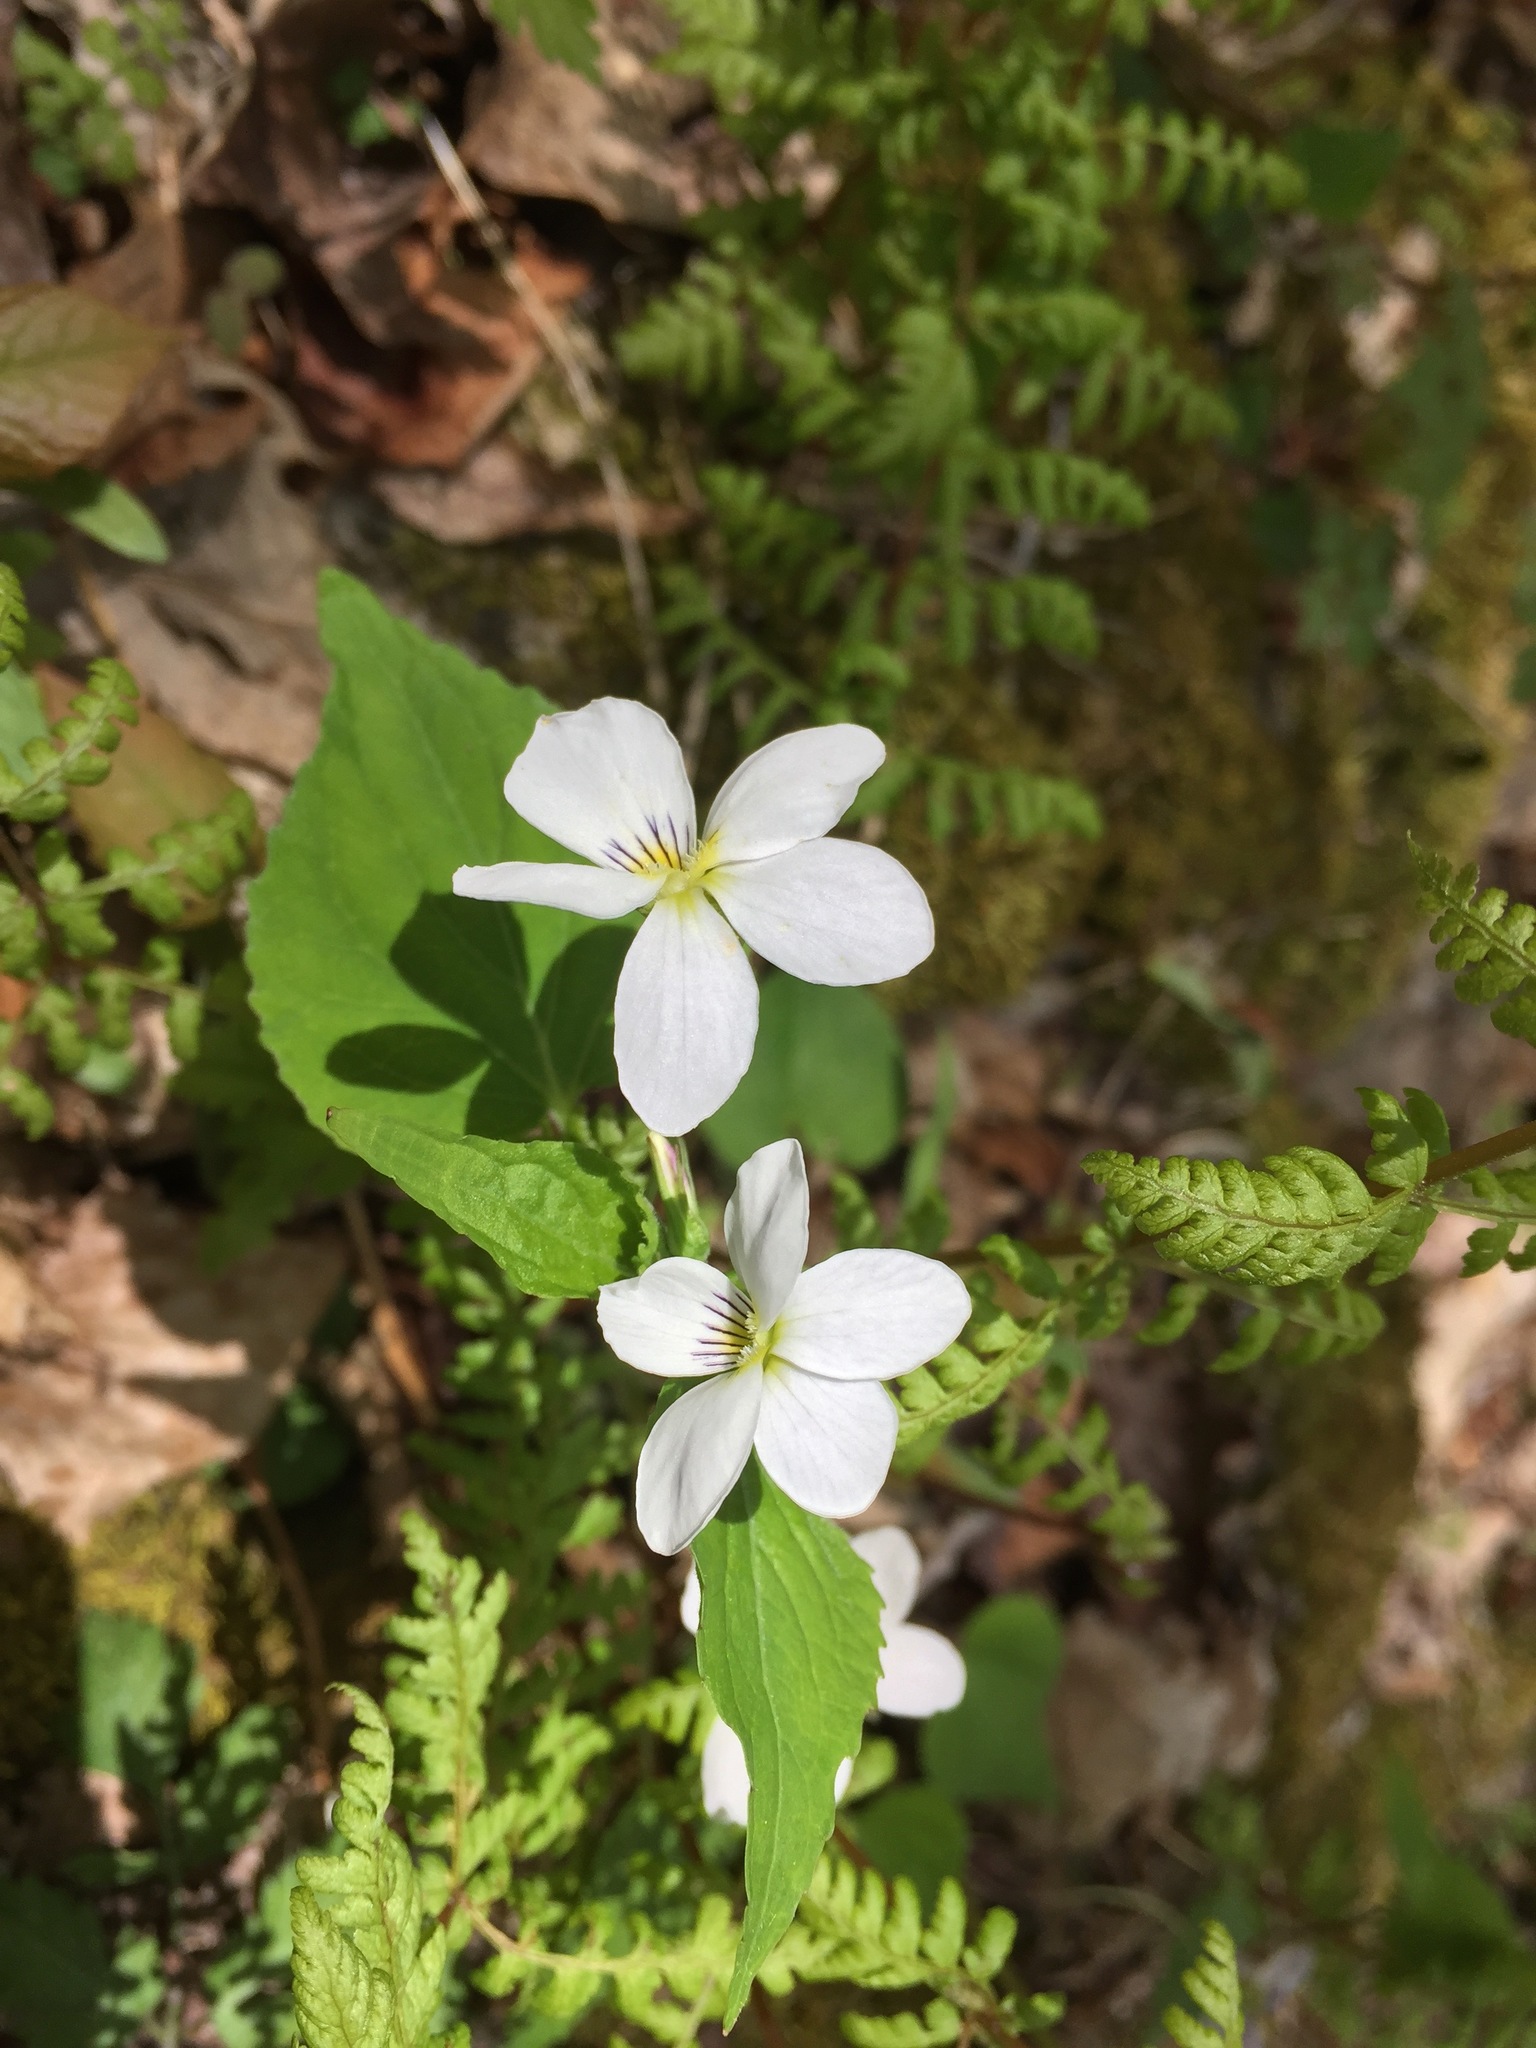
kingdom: Plantae
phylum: Tracheophyta
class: Magnoliopsida
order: Malpighiales
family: Violaceae
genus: Viola
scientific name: Viola canadensis
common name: Canada violet
